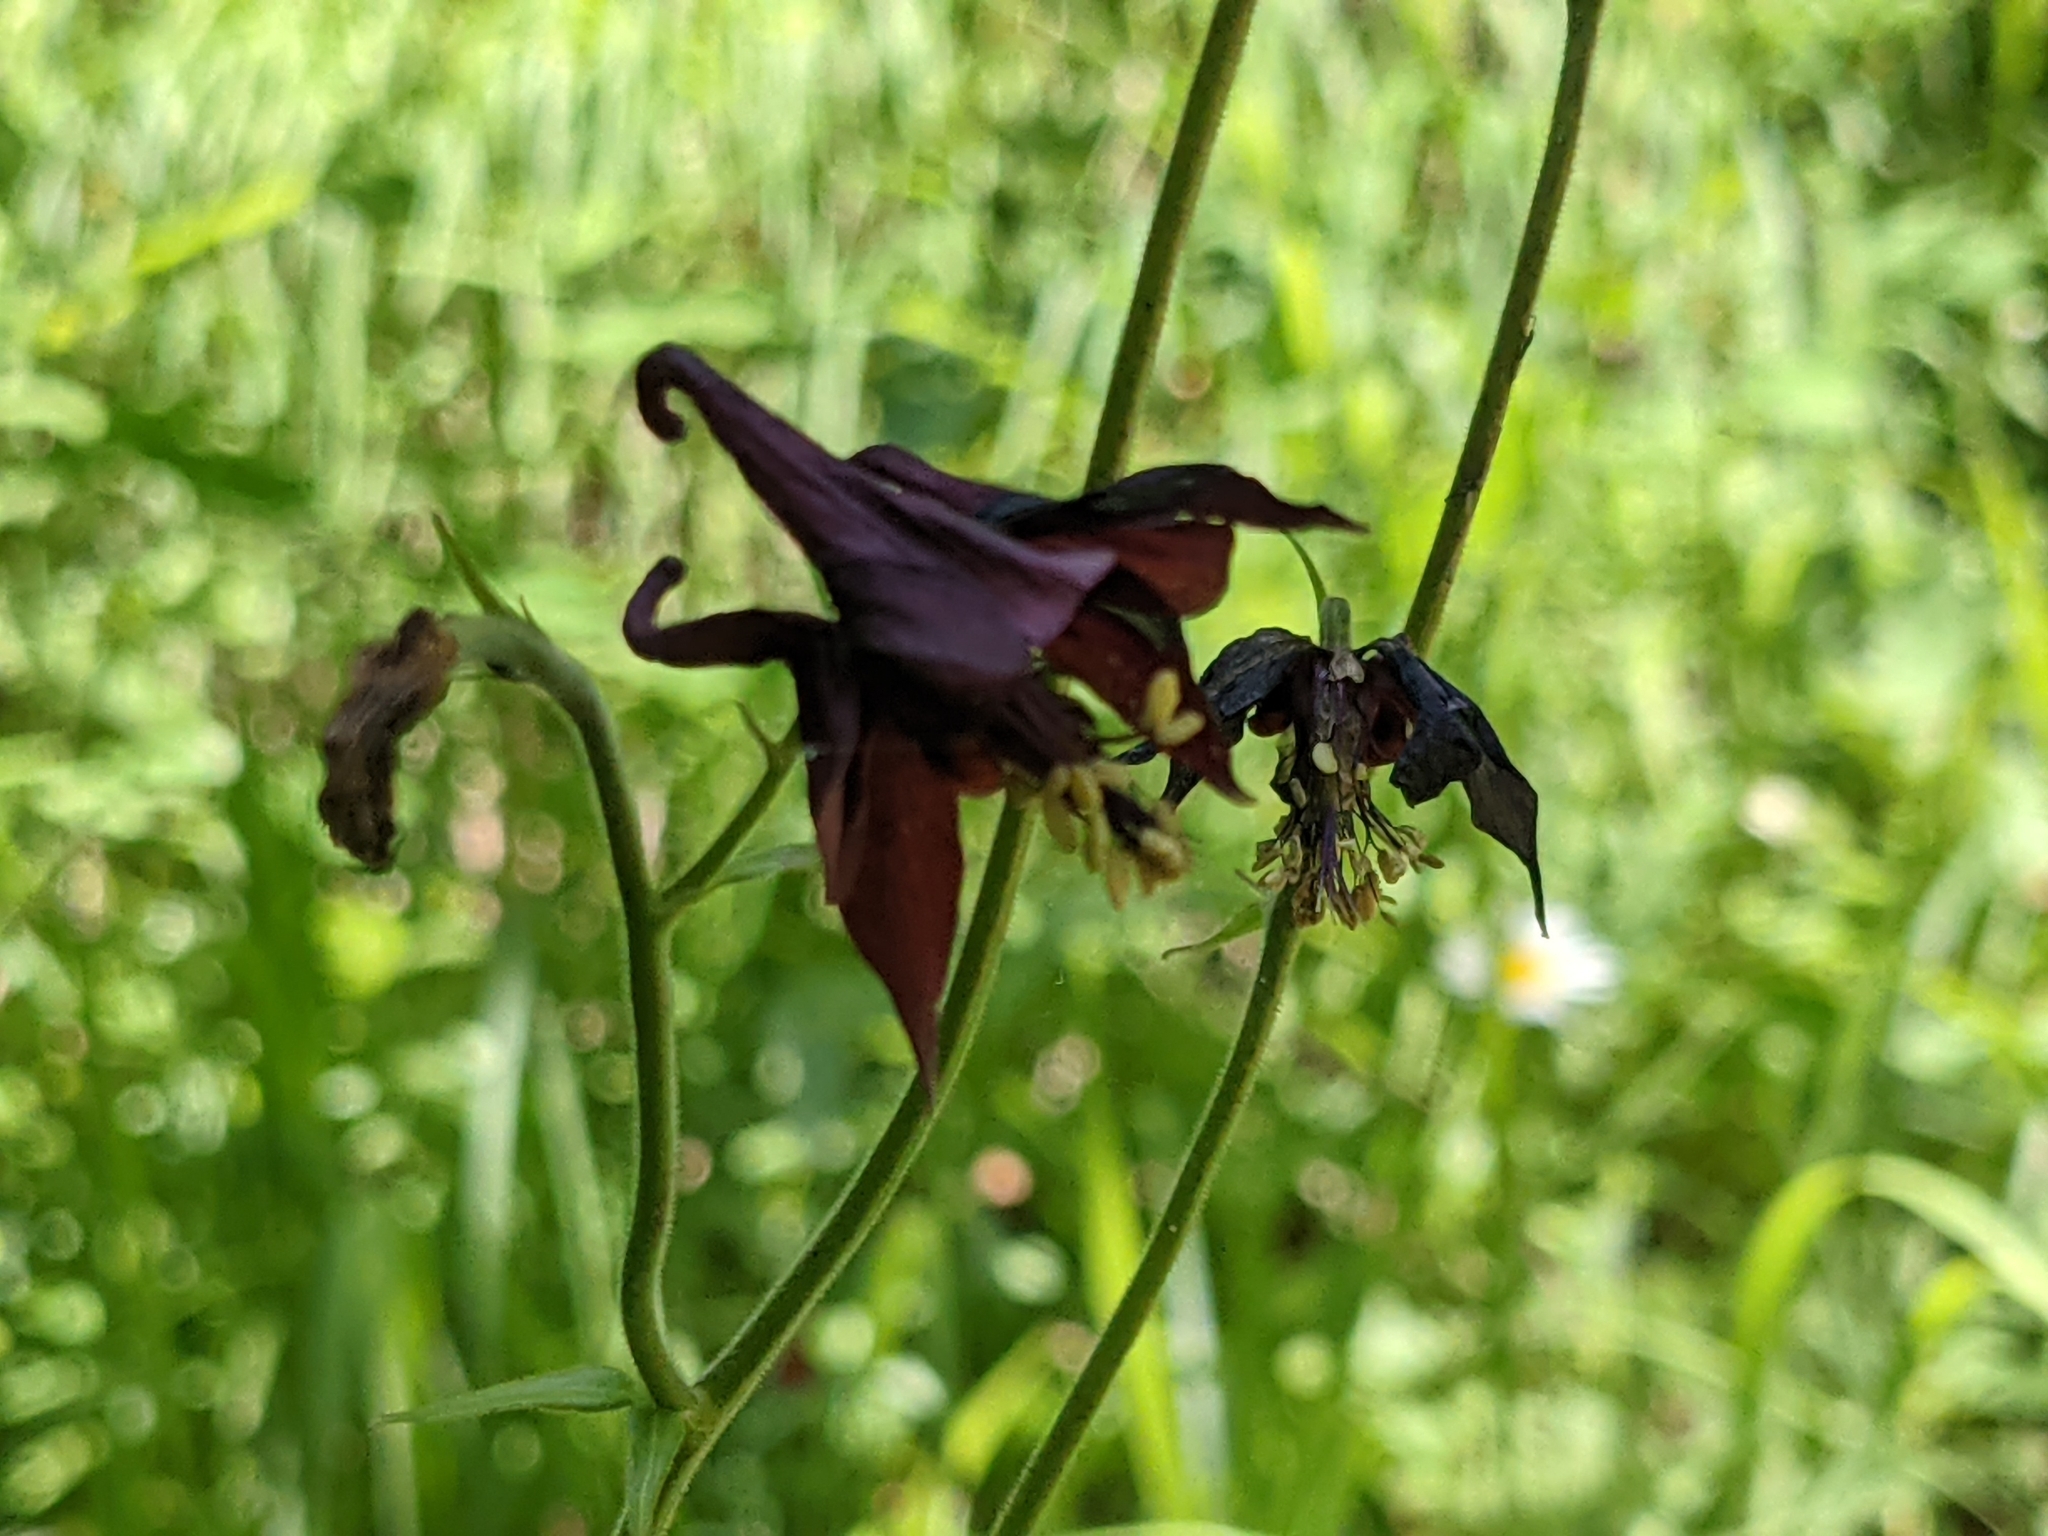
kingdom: Plantae
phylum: Tracheophyta
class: Magnoliopsida
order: Ranunculales
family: Ranunculaceae
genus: Aquilegia
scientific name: Aquilegia atrata
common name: Dark columbine
